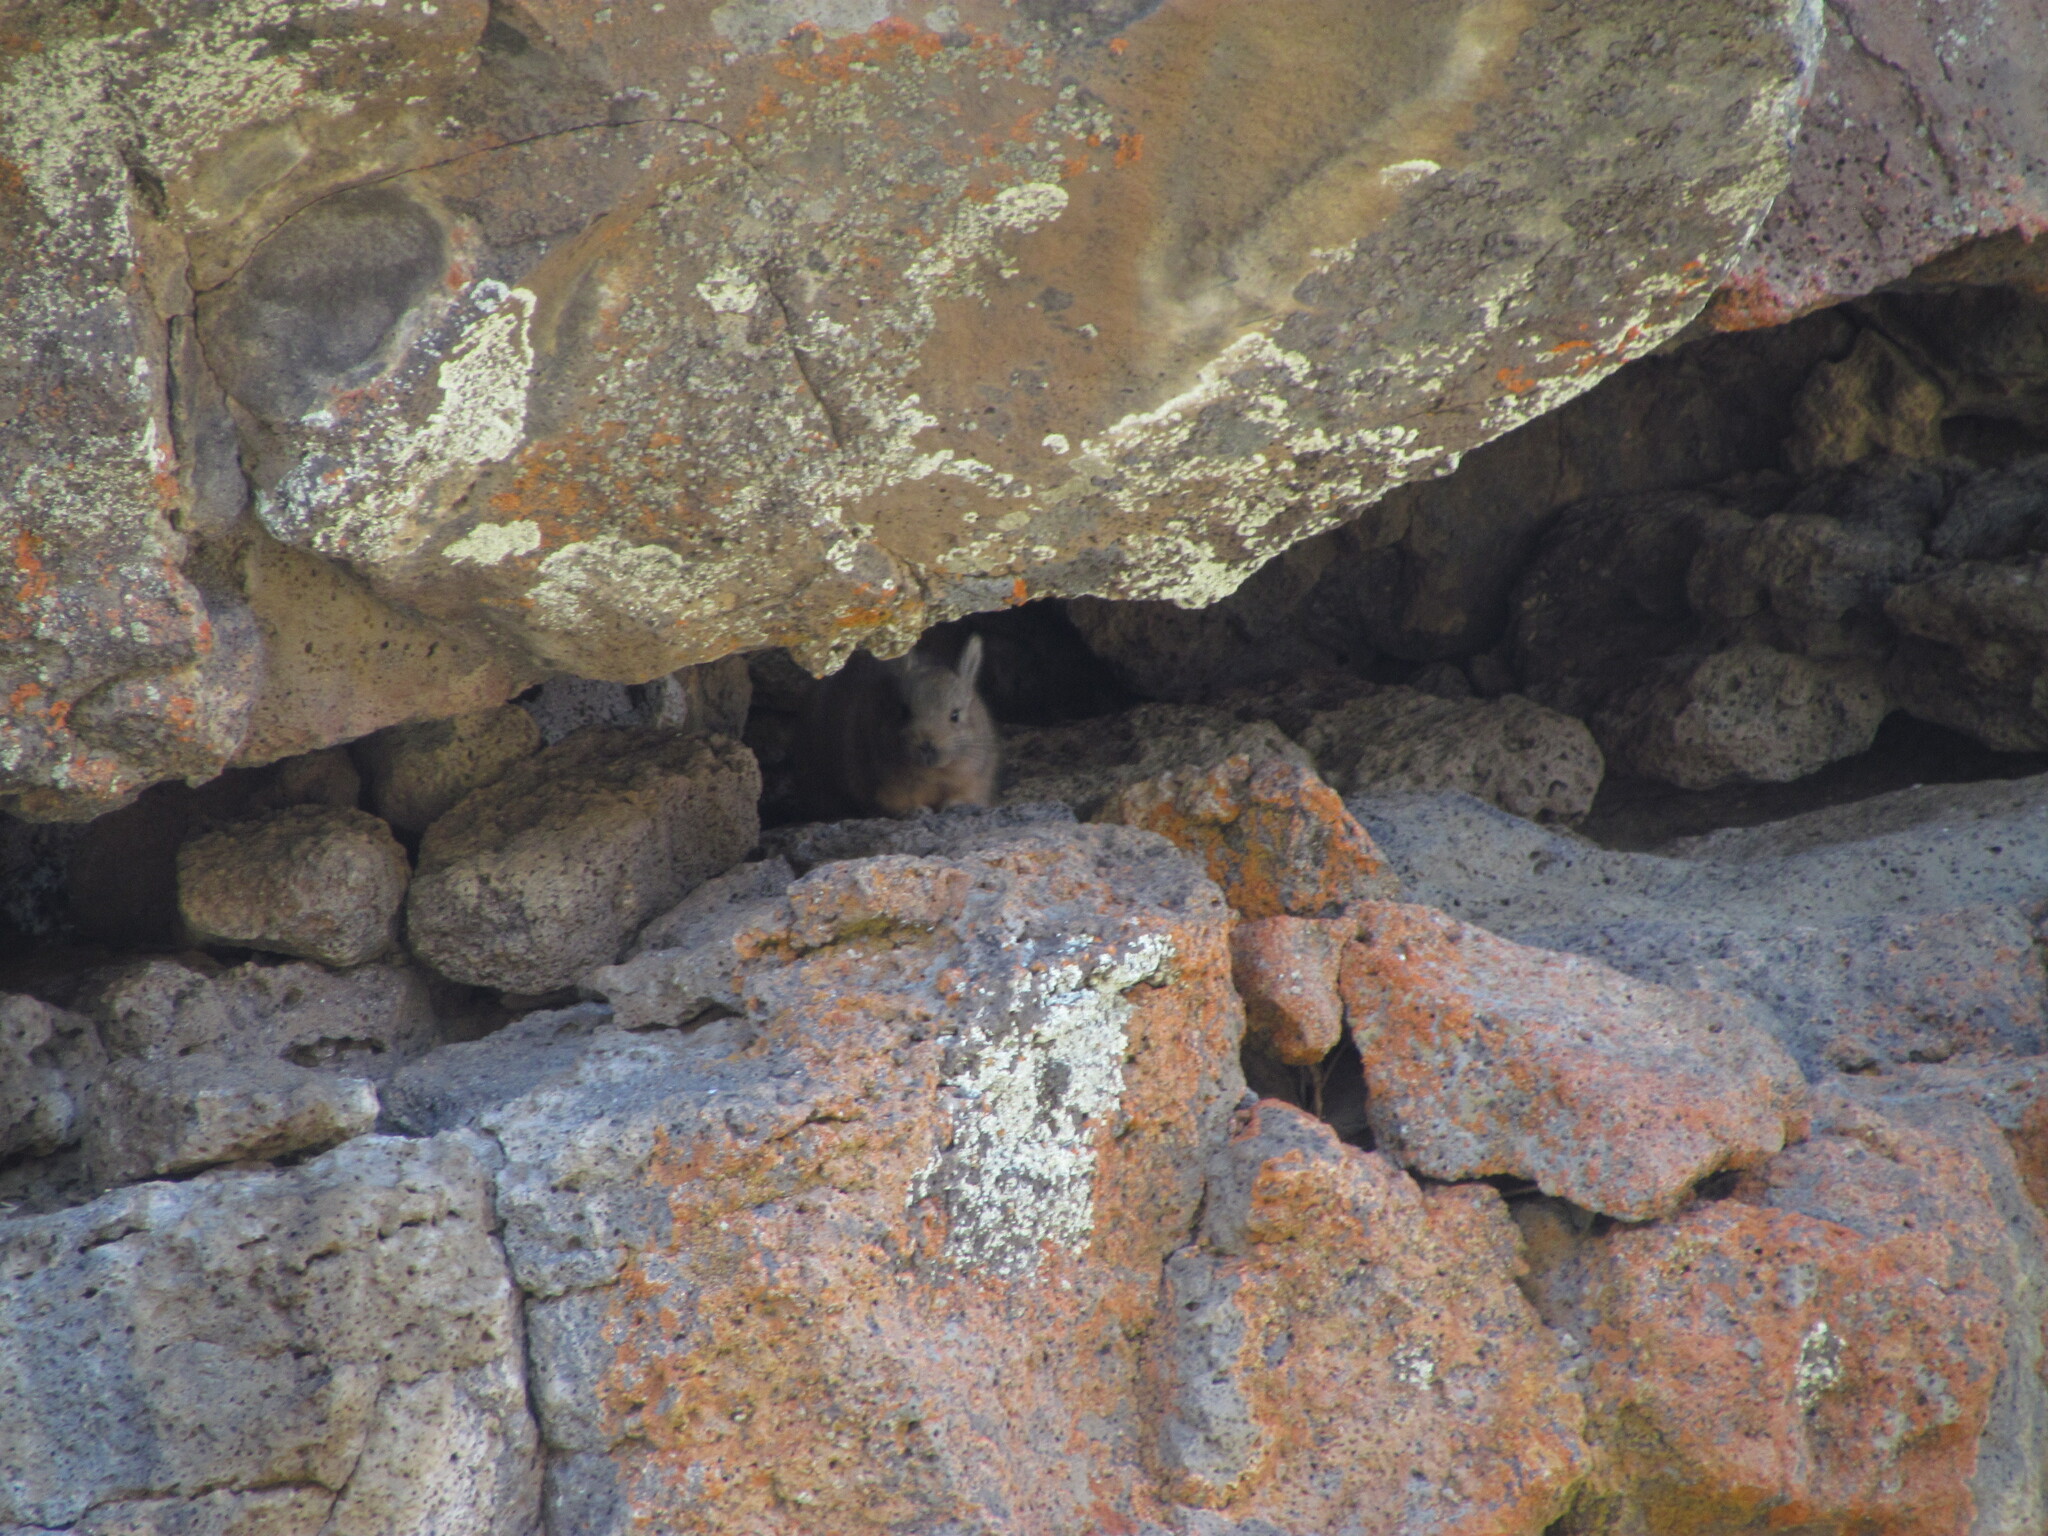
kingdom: Animalia
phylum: Chordata
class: Mammalia
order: Rodentia
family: Chinchillidae
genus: Lagidium
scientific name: Lagidium wolffsohni
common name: Wolffsohn's viscacha
